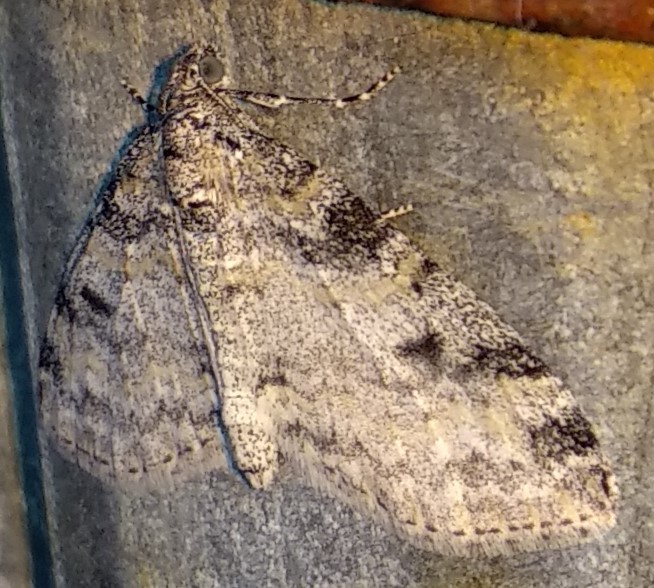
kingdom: Animalia
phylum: Arthropoda
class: Insecta
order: Lepidoptera
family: Geometridae
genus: Lobophora
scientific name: Lobophora nivigerata
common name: Powdered bigwing
